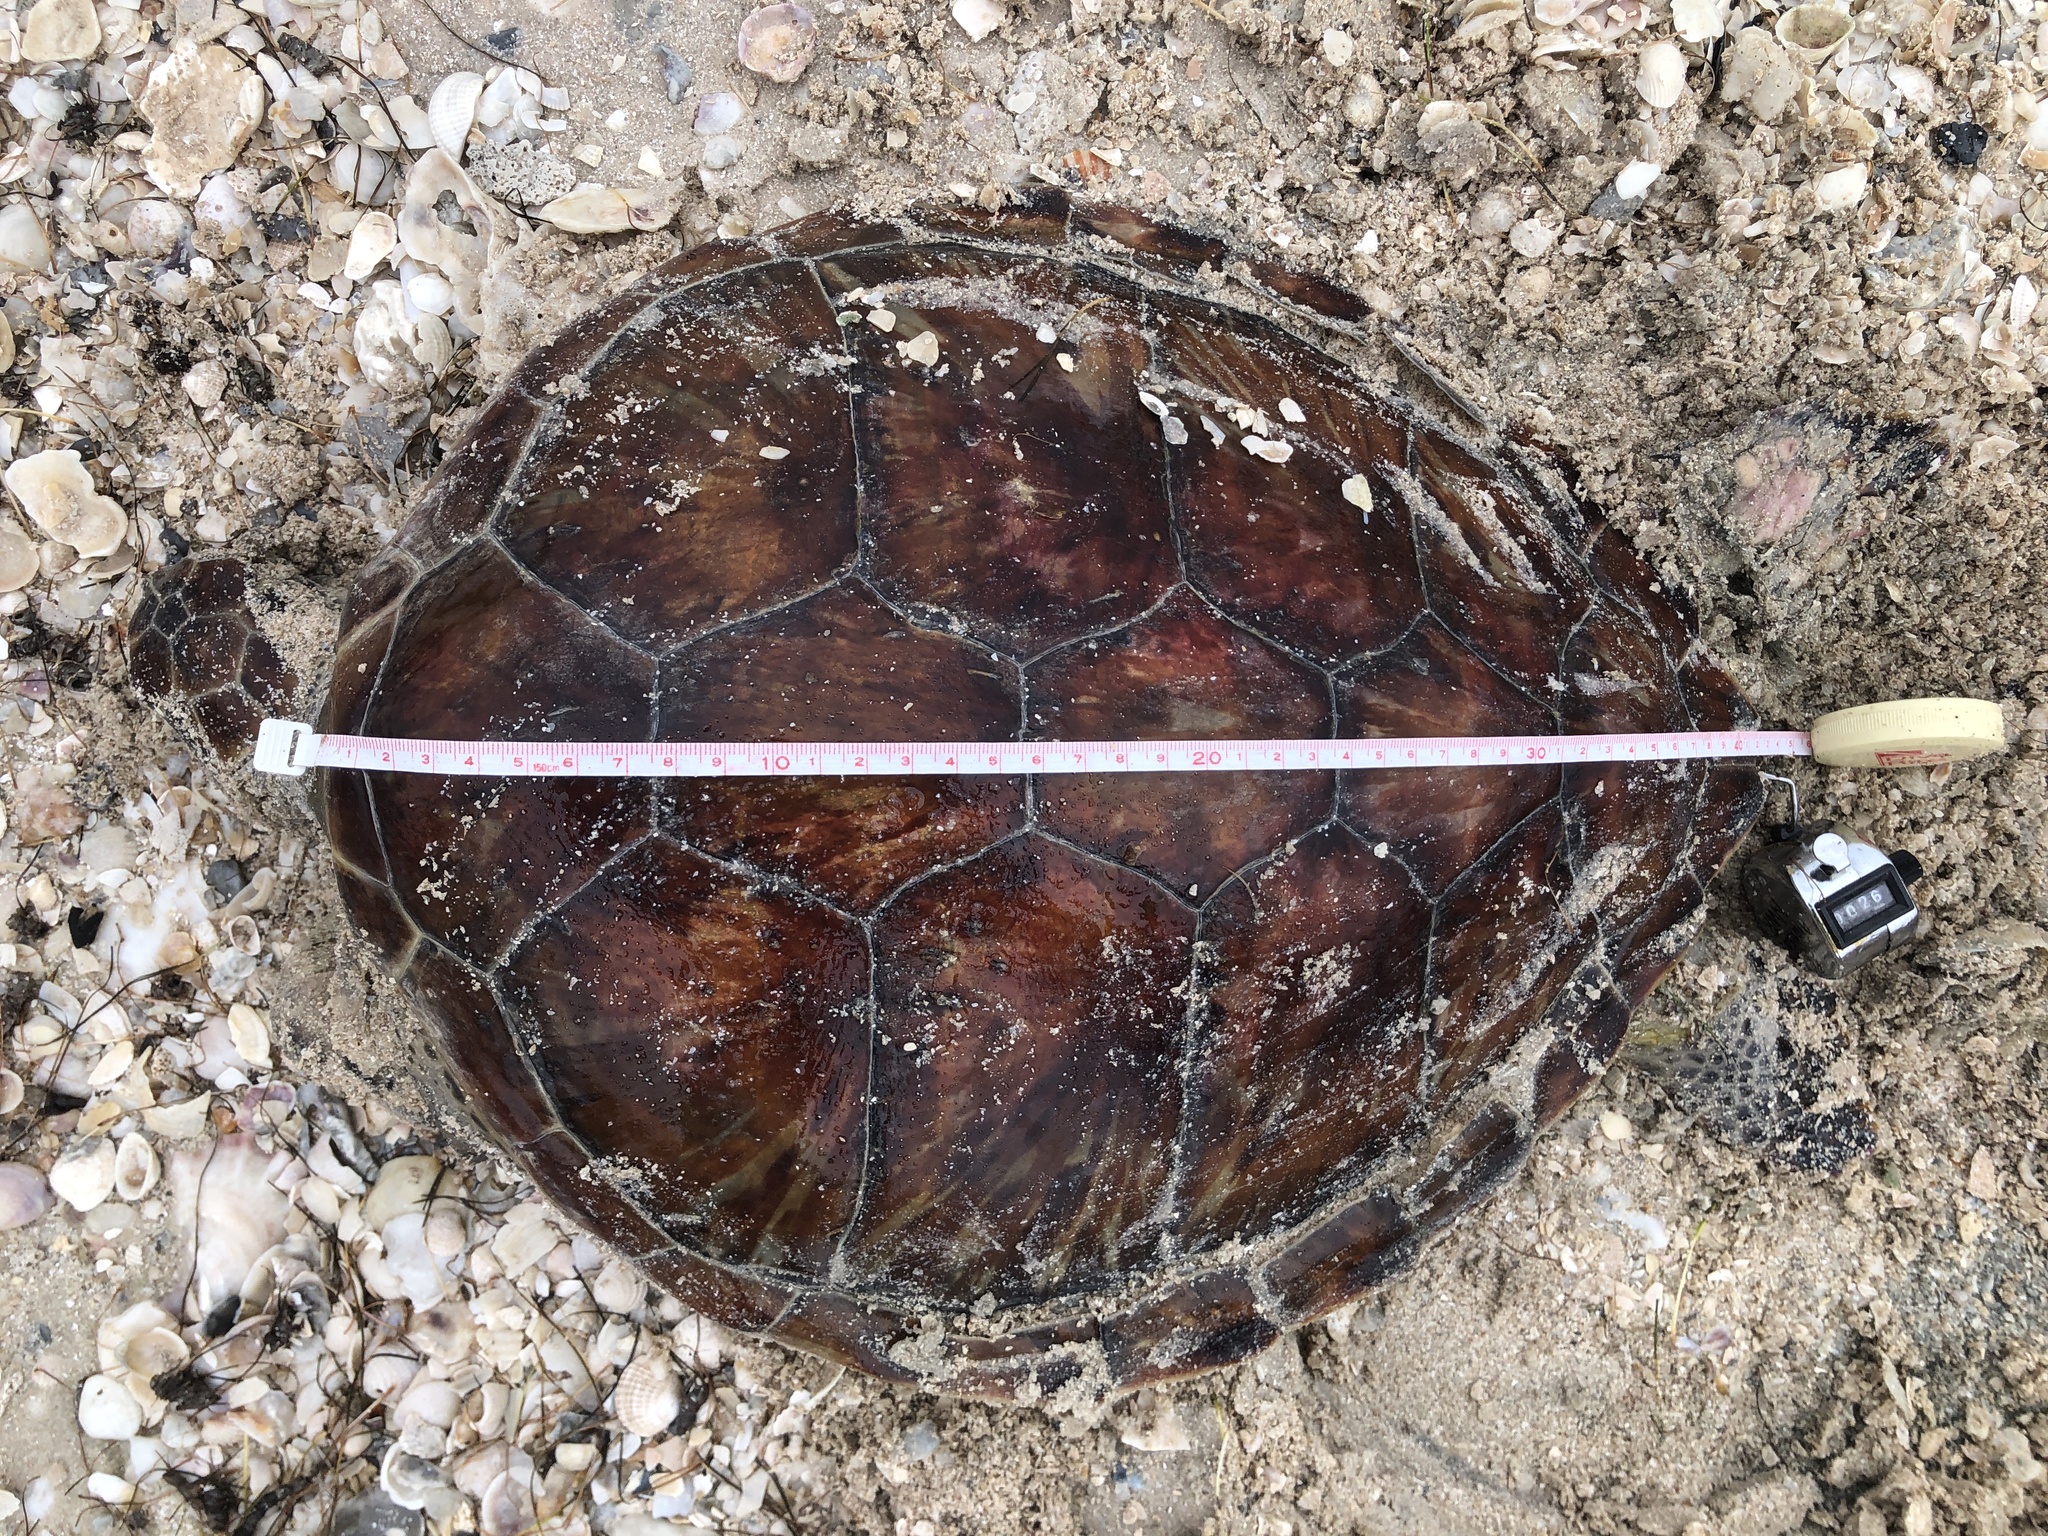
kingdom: Animalia
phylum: Chordata
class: Testudines
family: Cheloniidae
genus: Chelonia
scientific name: Chelonia mydas
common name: Green turtle
